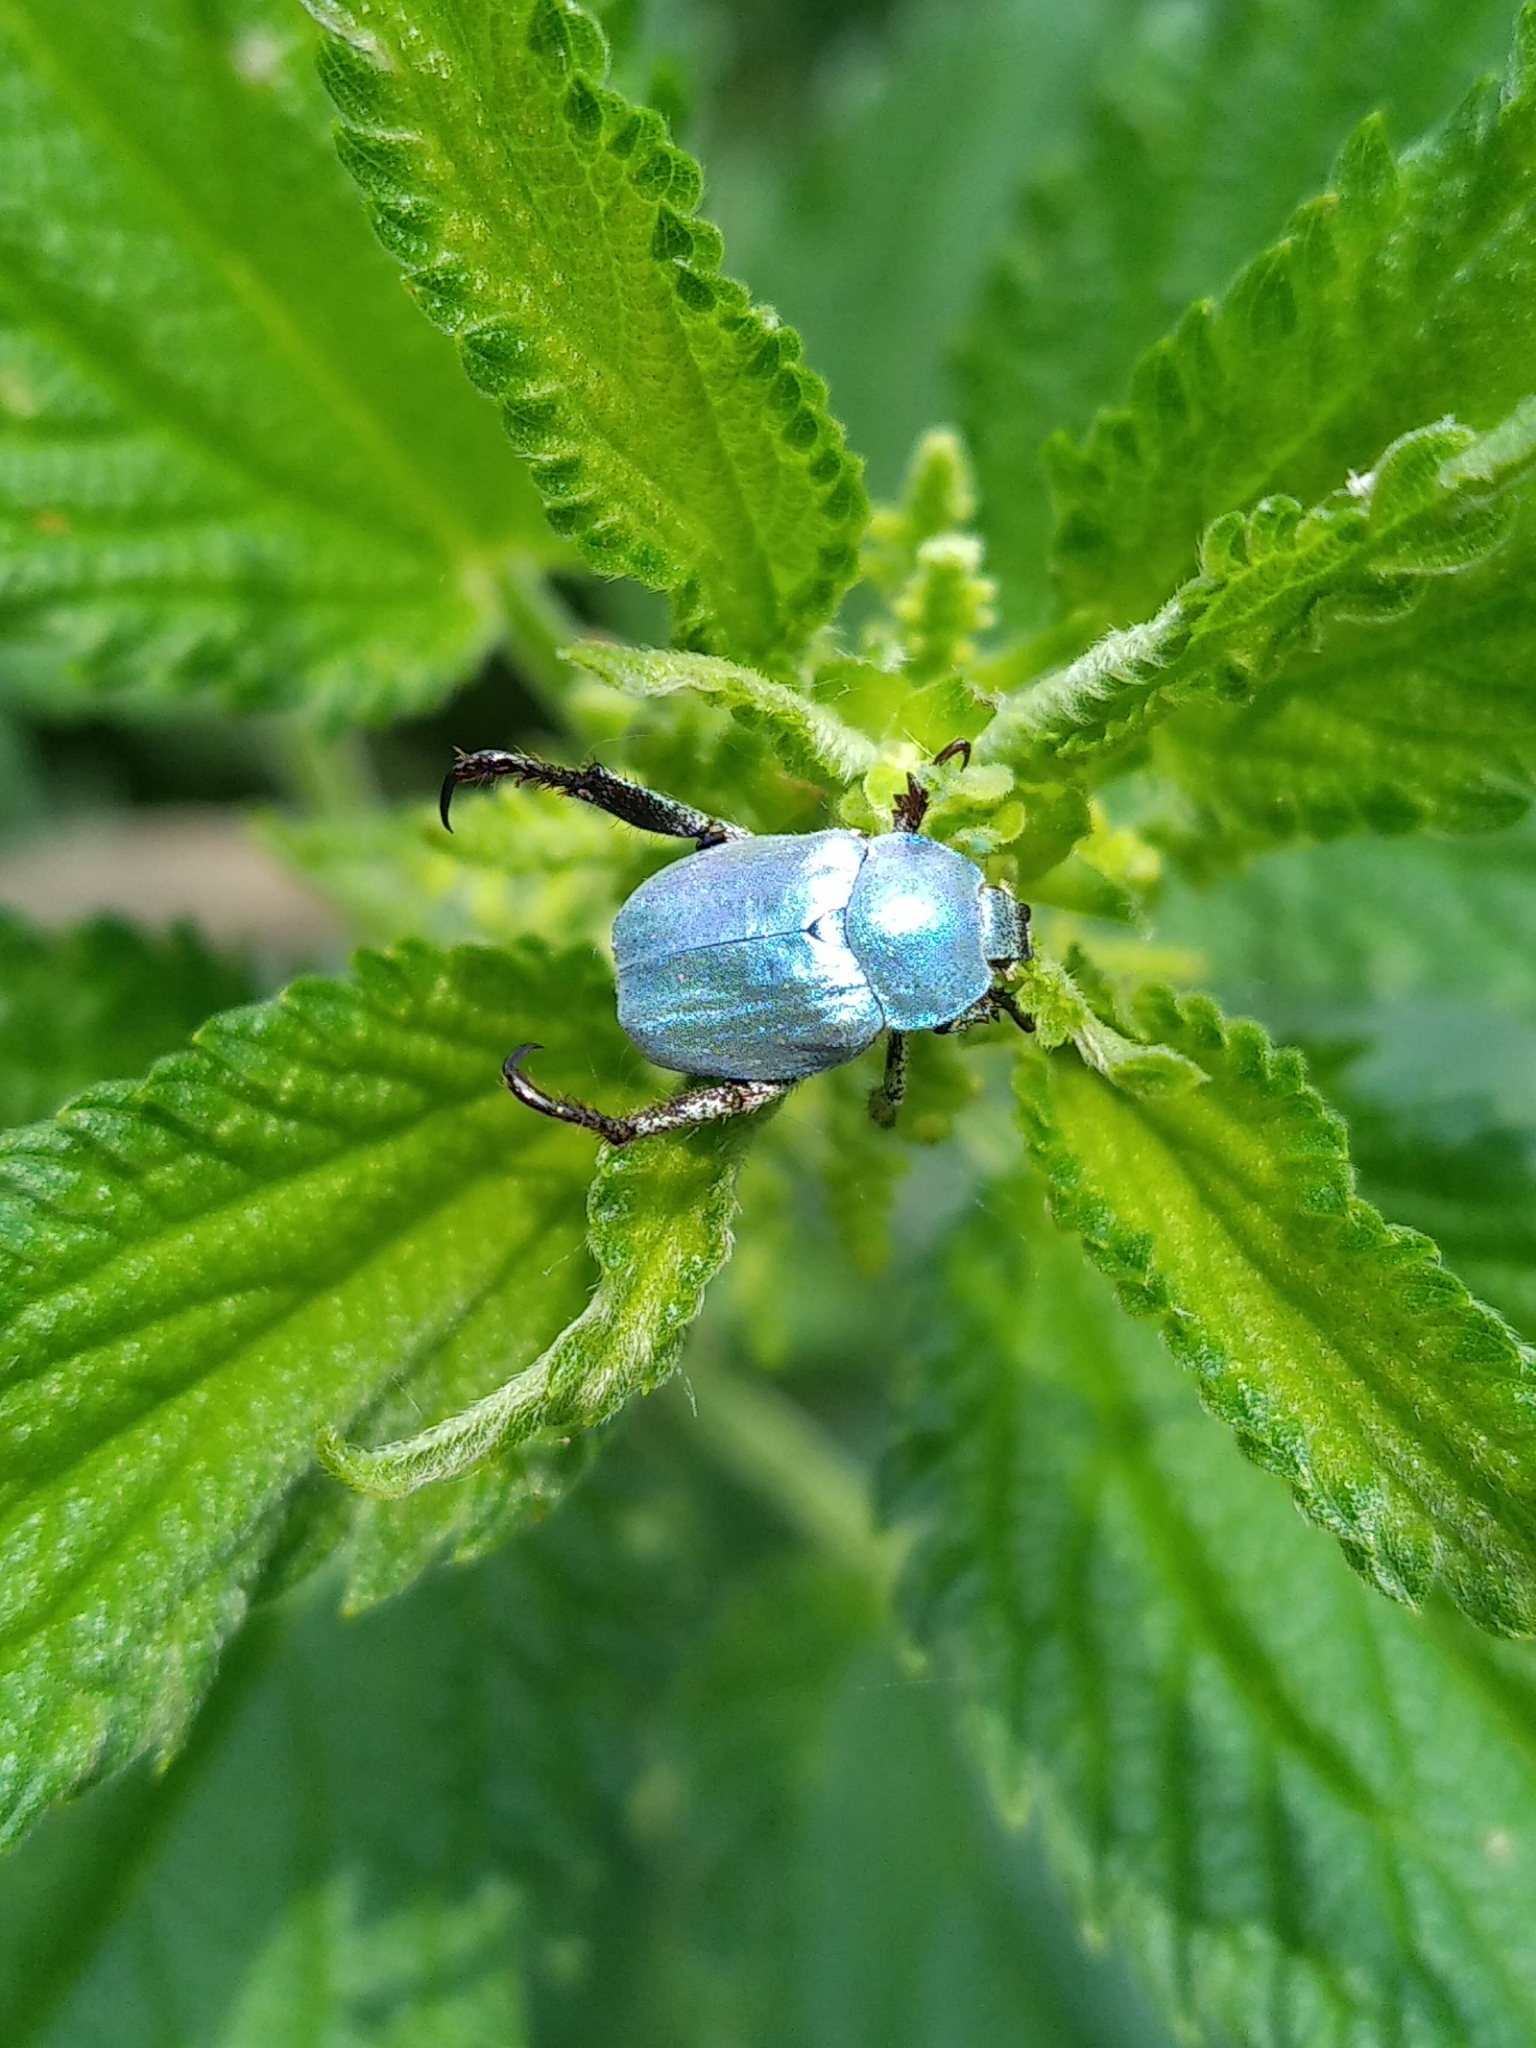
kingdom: Animalia
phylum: Arthropoda
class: Insecta
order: Coleoptera
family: Scarabaeidae
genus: Hoplia
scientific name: Hoplia coerulea
